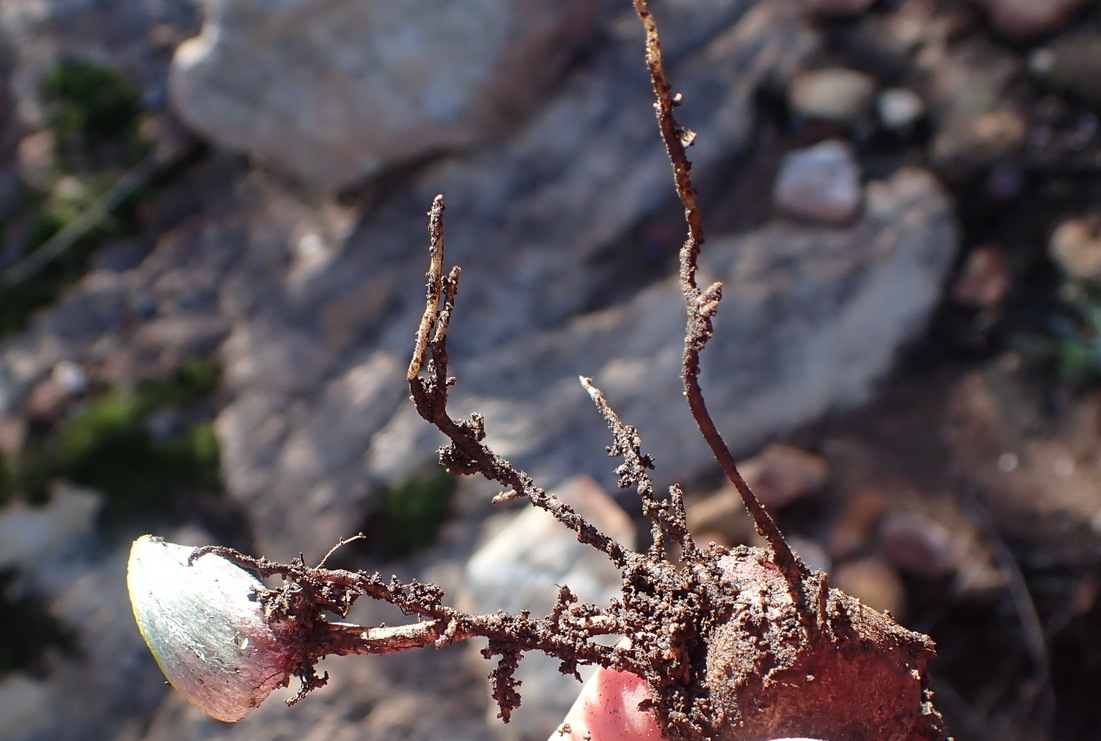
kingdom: Plantae
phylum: Tracheophyta
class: Liliopsida
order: Asparagales
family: Asparagaceae
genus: Eriospermum
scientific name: Eriospermum pubescens
